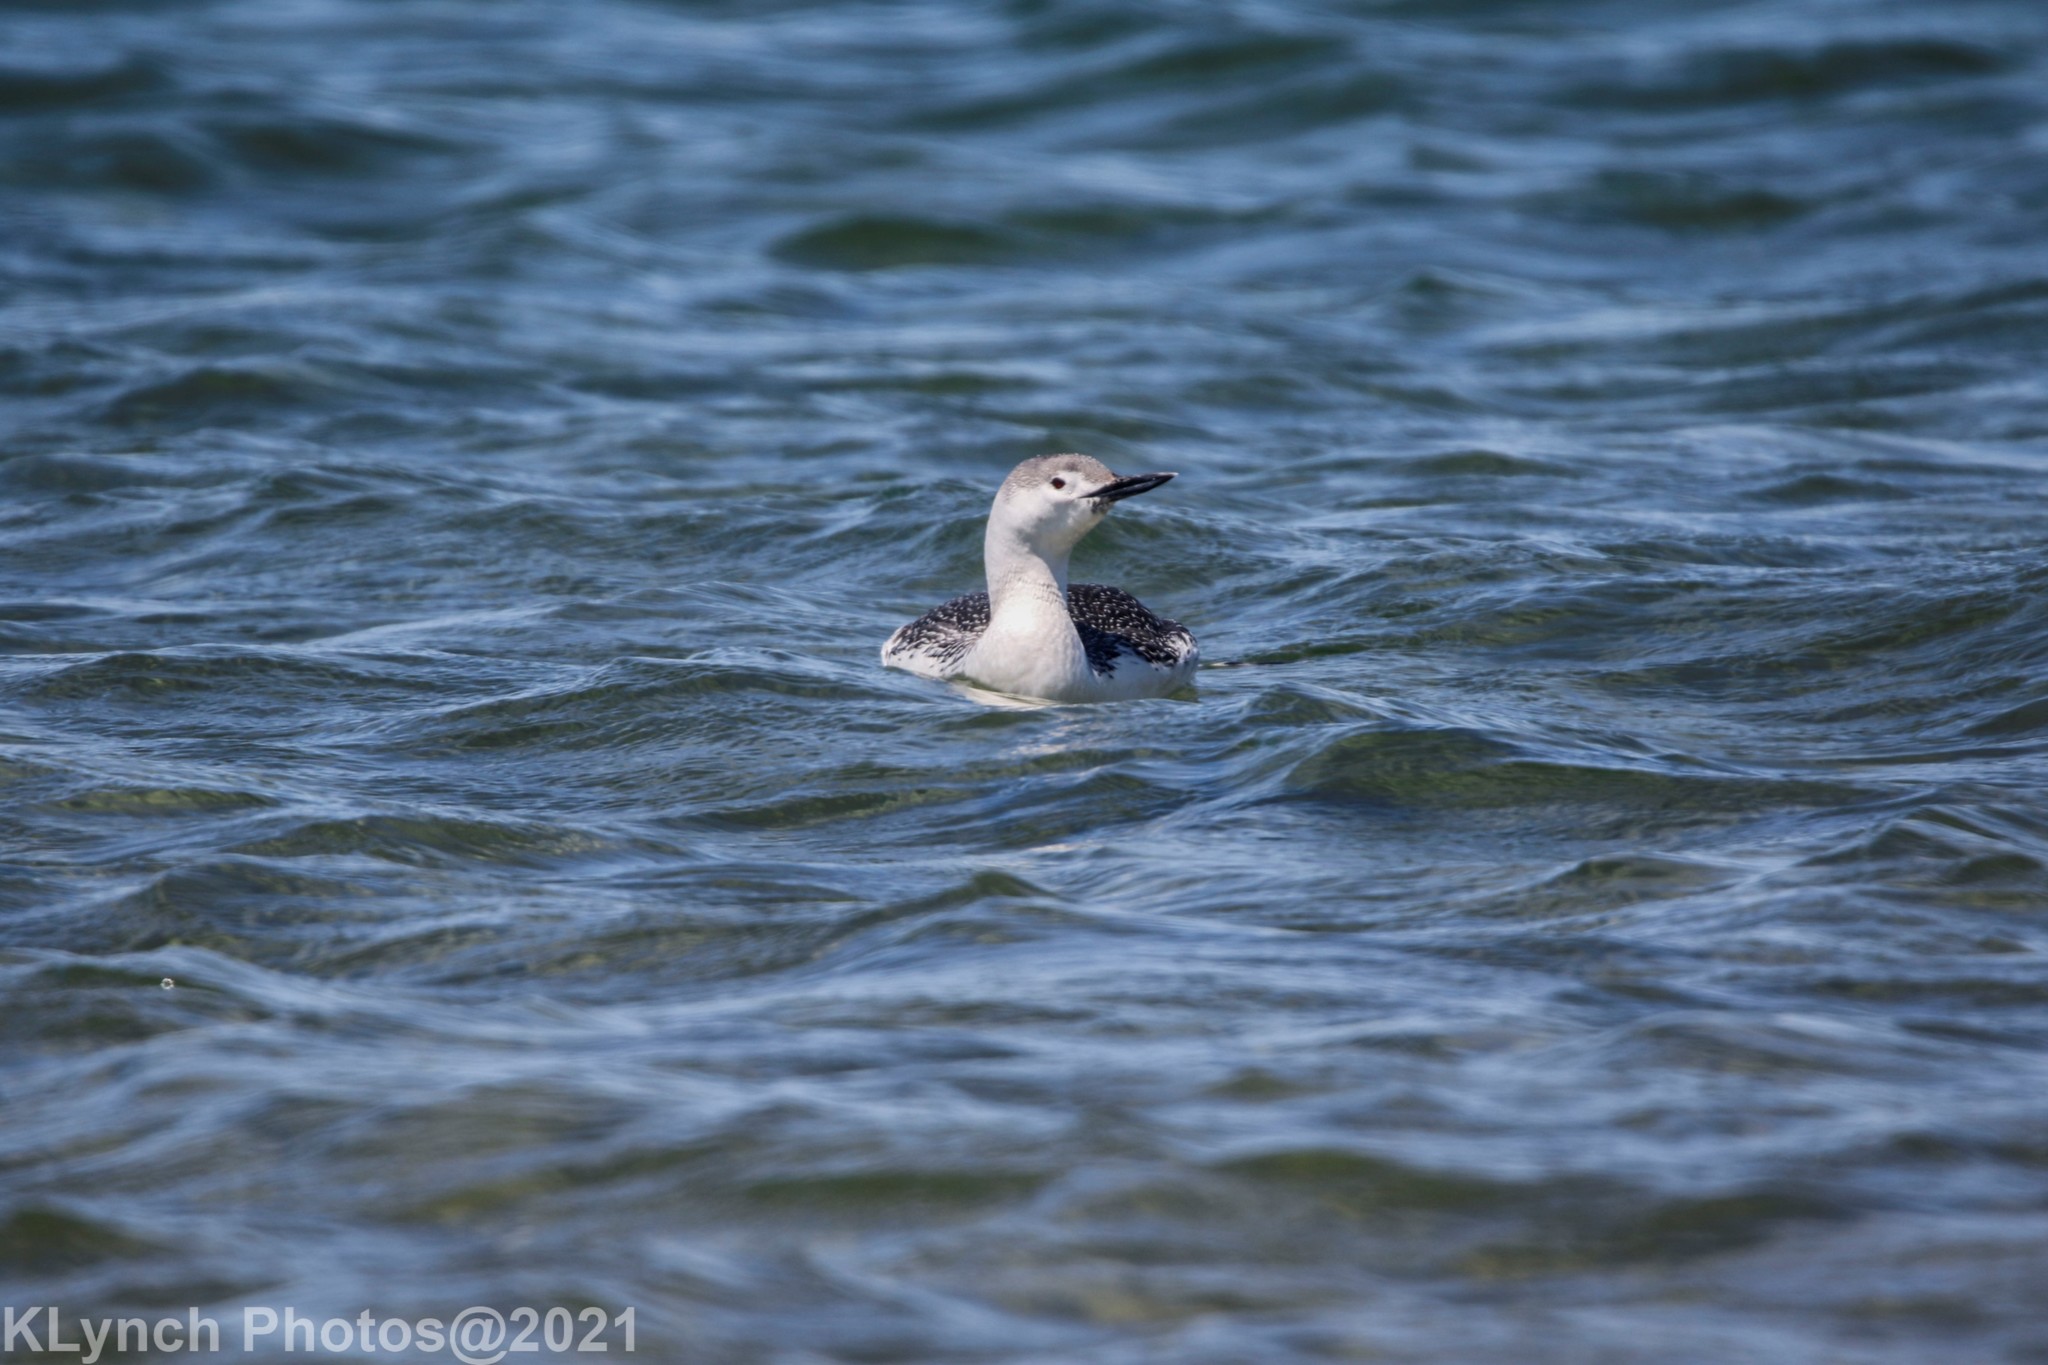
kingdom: Animalia
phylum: Chordata
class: Aves
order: Gaviiformes
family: Gaviidae
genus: Gavia
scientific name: Gavia stellata
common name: Red-throated loon
